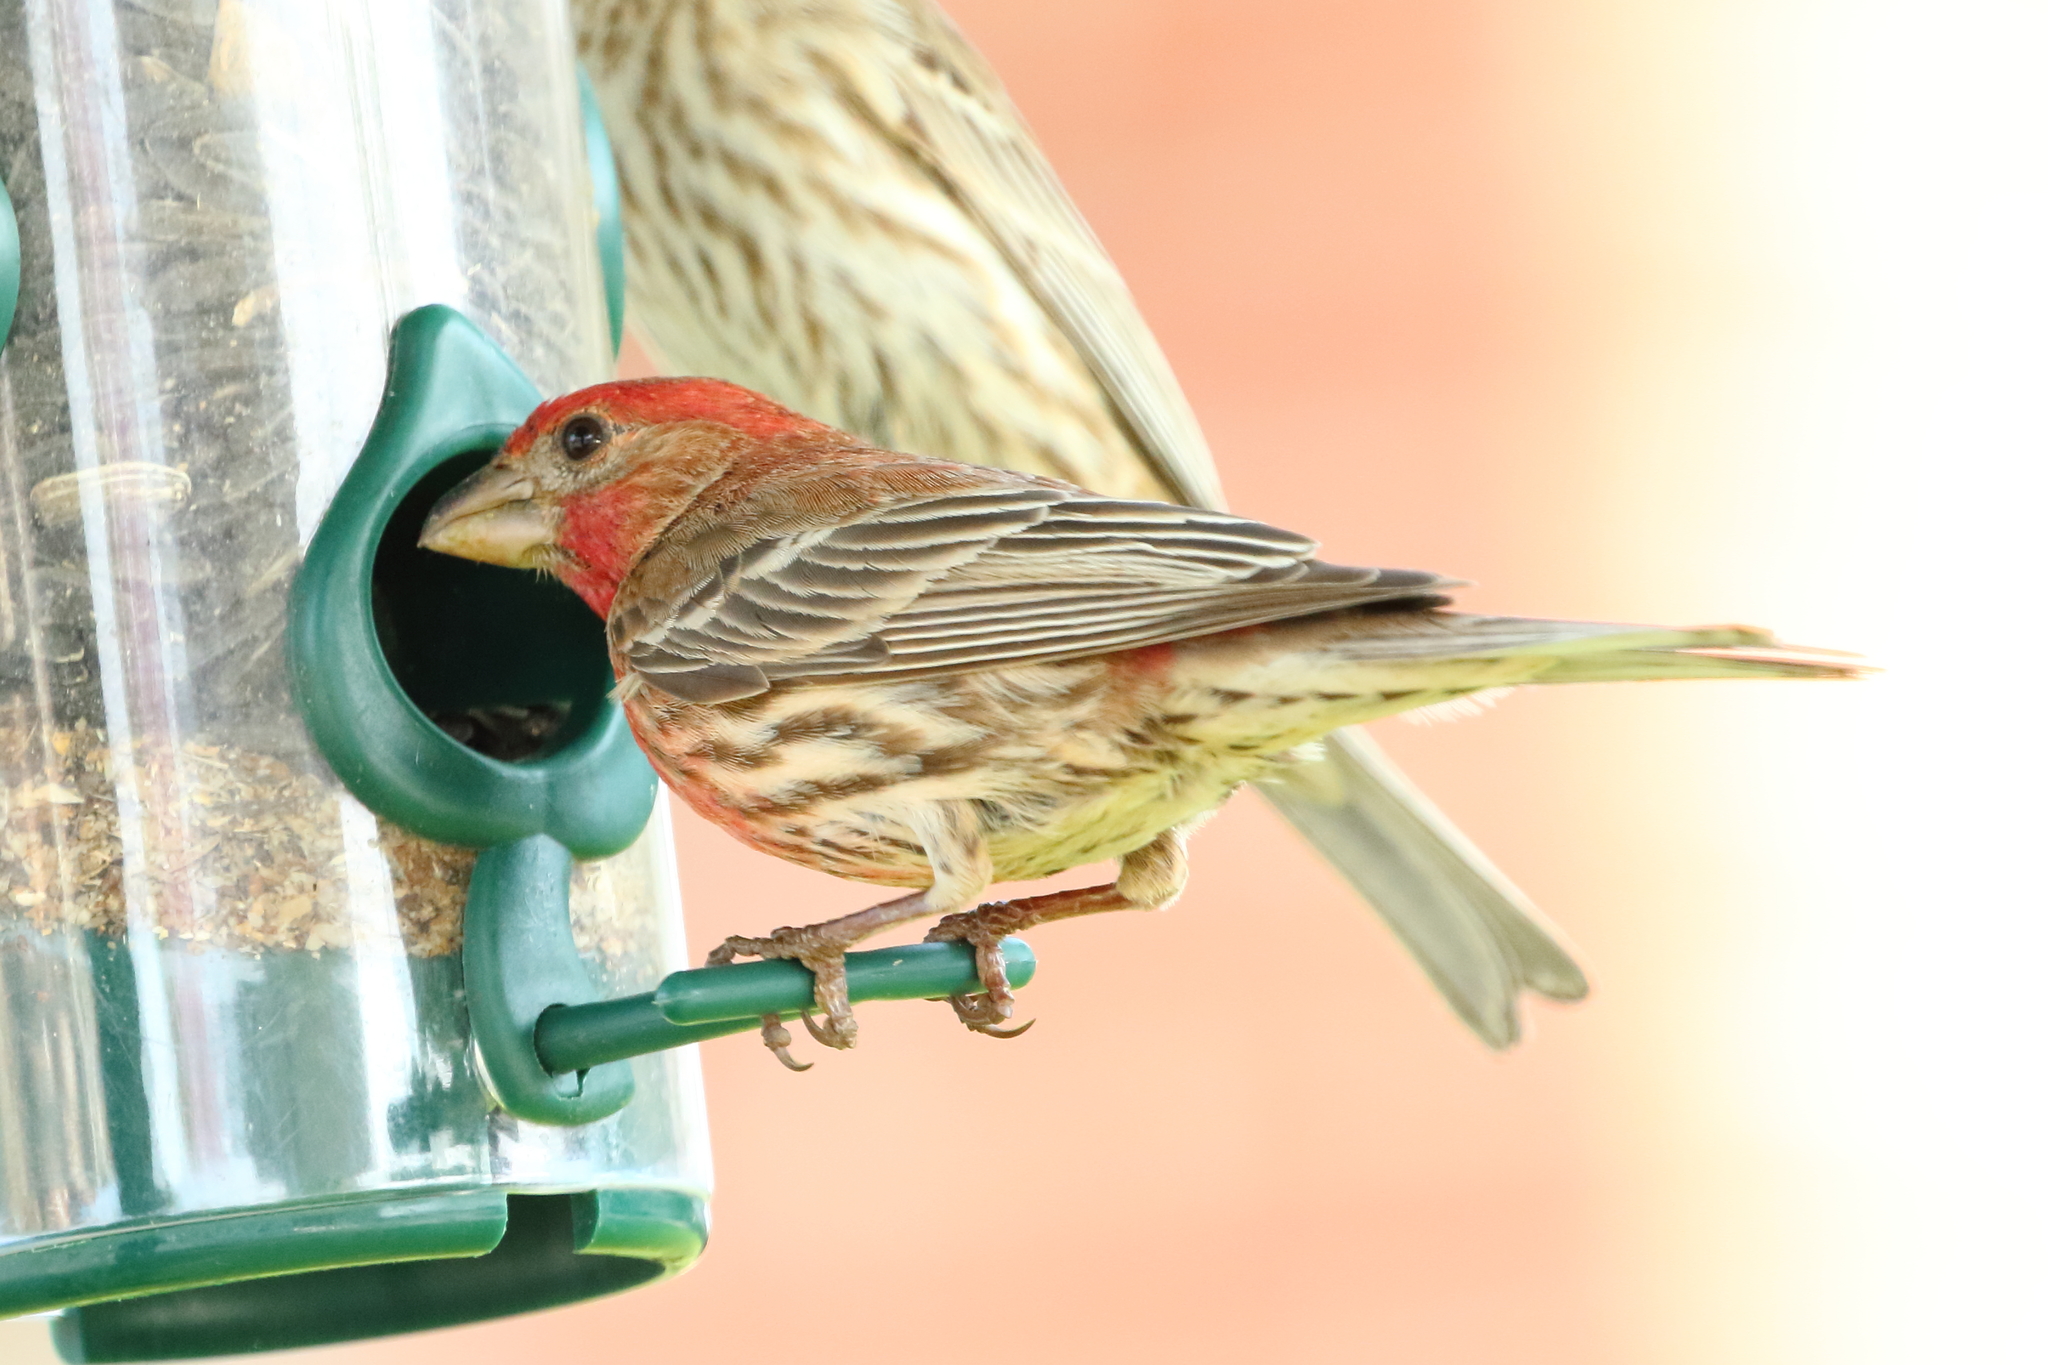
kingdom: Animalia
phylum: Chordata
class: Aves
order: Passeriformes
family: Fringillidae
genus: Haemorhous
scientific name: Haemorhous mexicanus
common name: House finch
